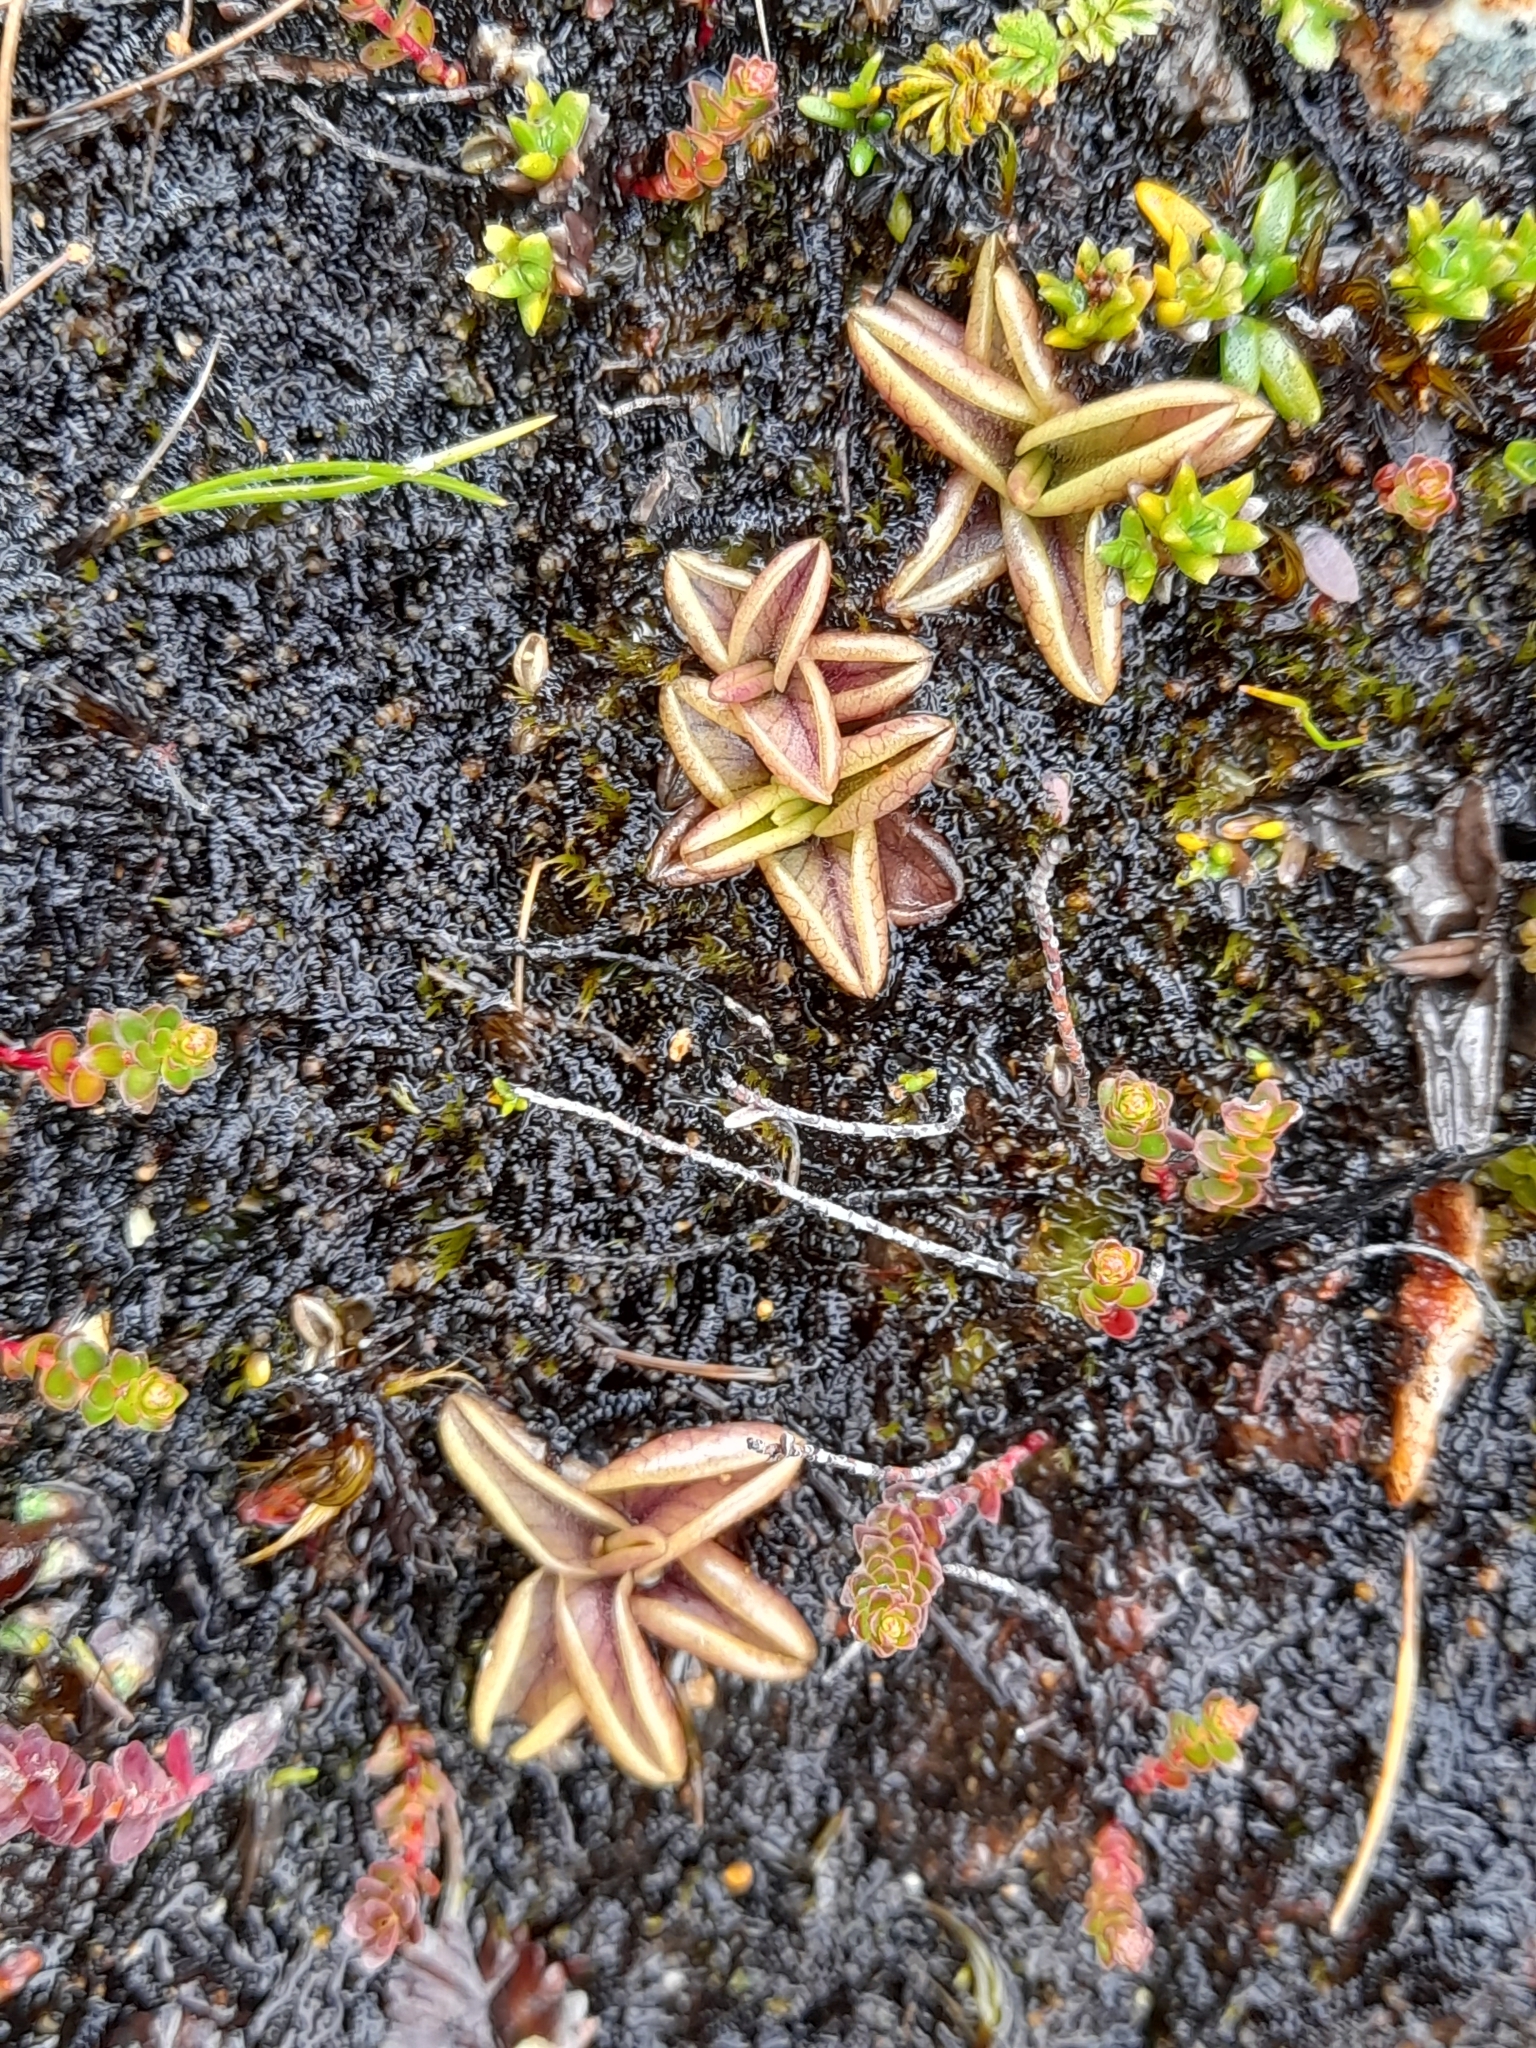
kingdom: Plantae
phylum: Tracheophyta
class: Magnoliopsida
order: Lamiales
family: Lentibulariaceae
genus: Pinguicula
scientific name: Pinguicula antarctica
